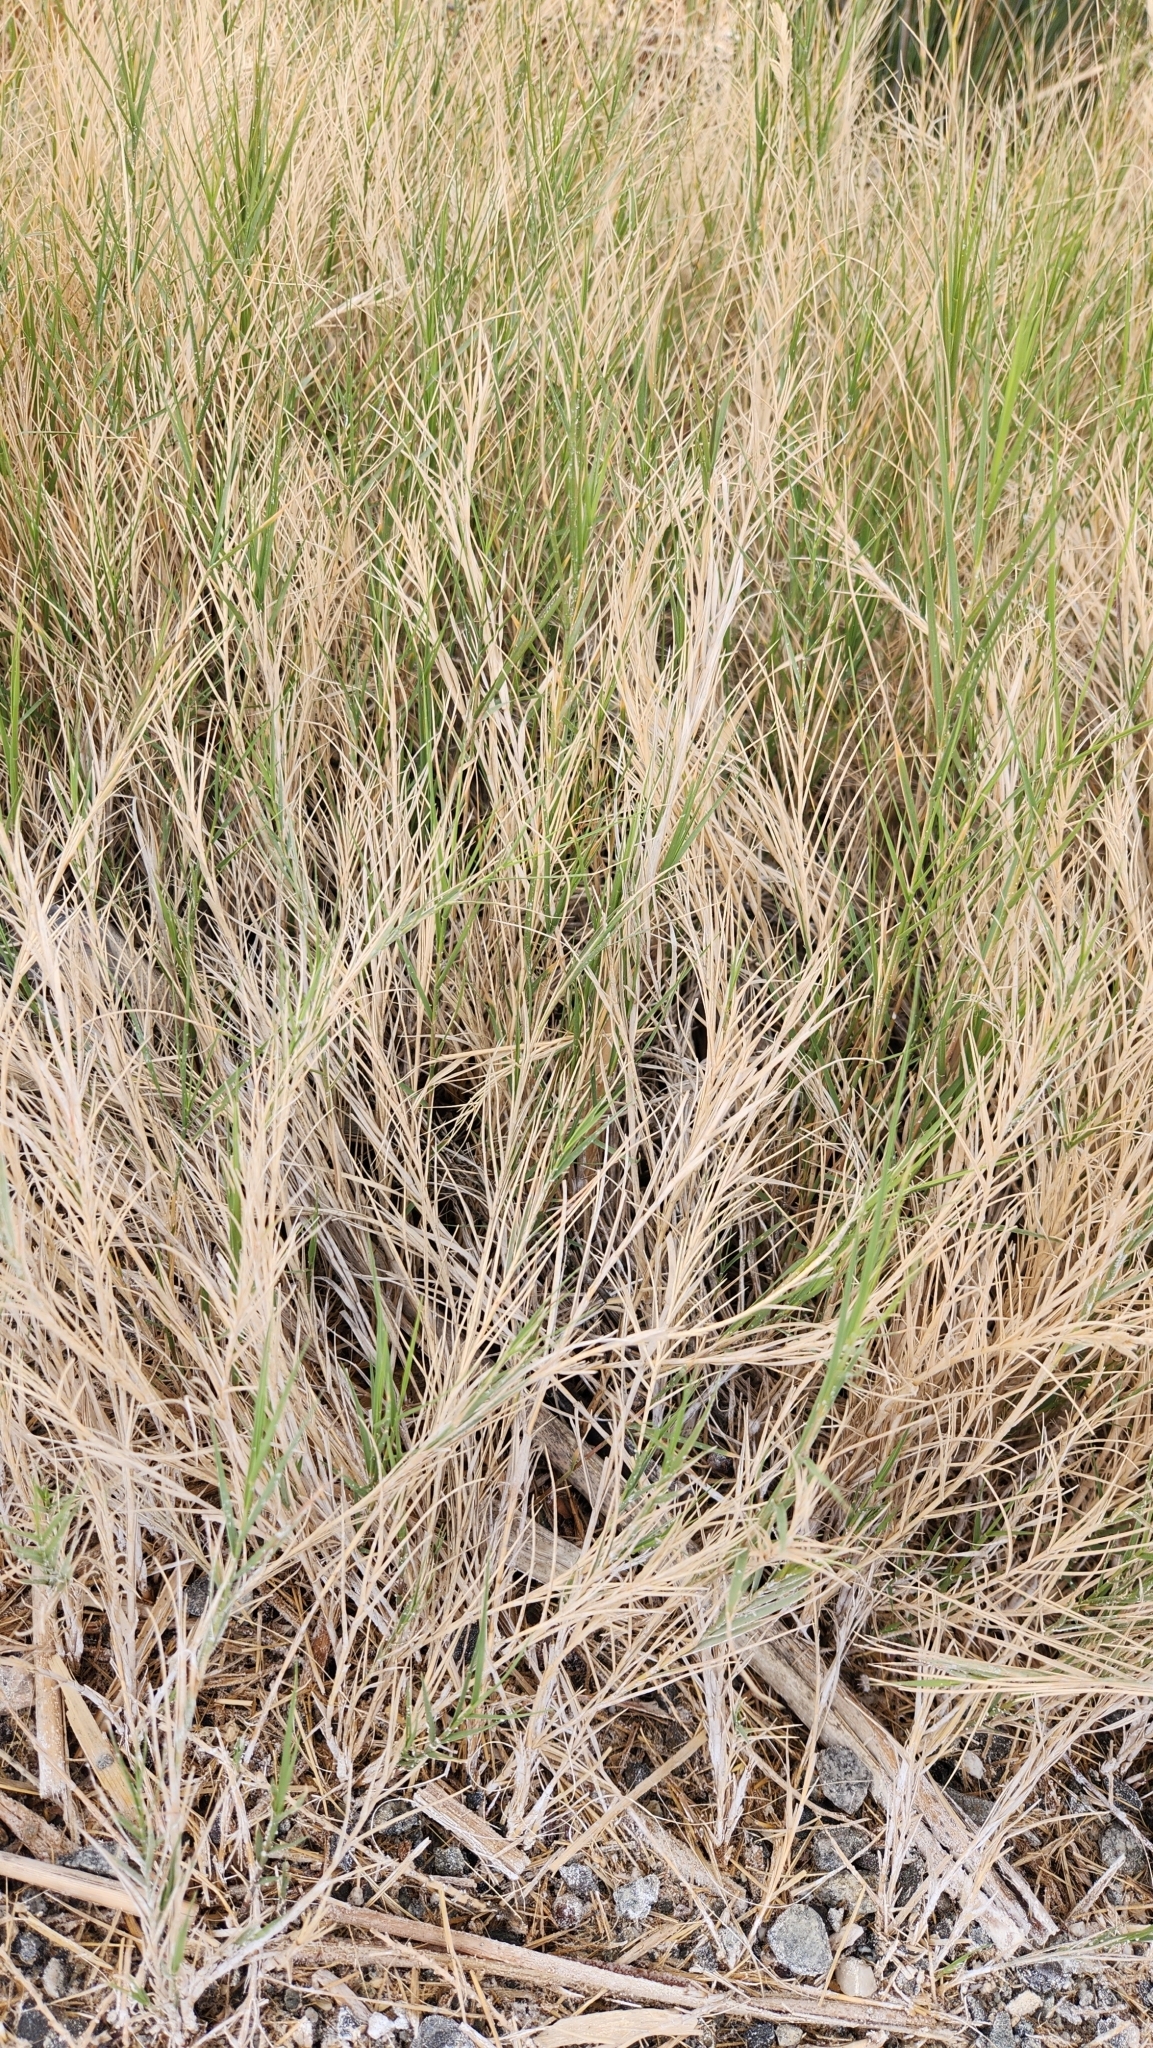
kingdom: Plantae
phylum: Tracheophyta
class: Liliopsida
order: Poales
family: Poaceae
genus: Distichlis
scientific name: Distichlis spicata
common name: Saltgrass
